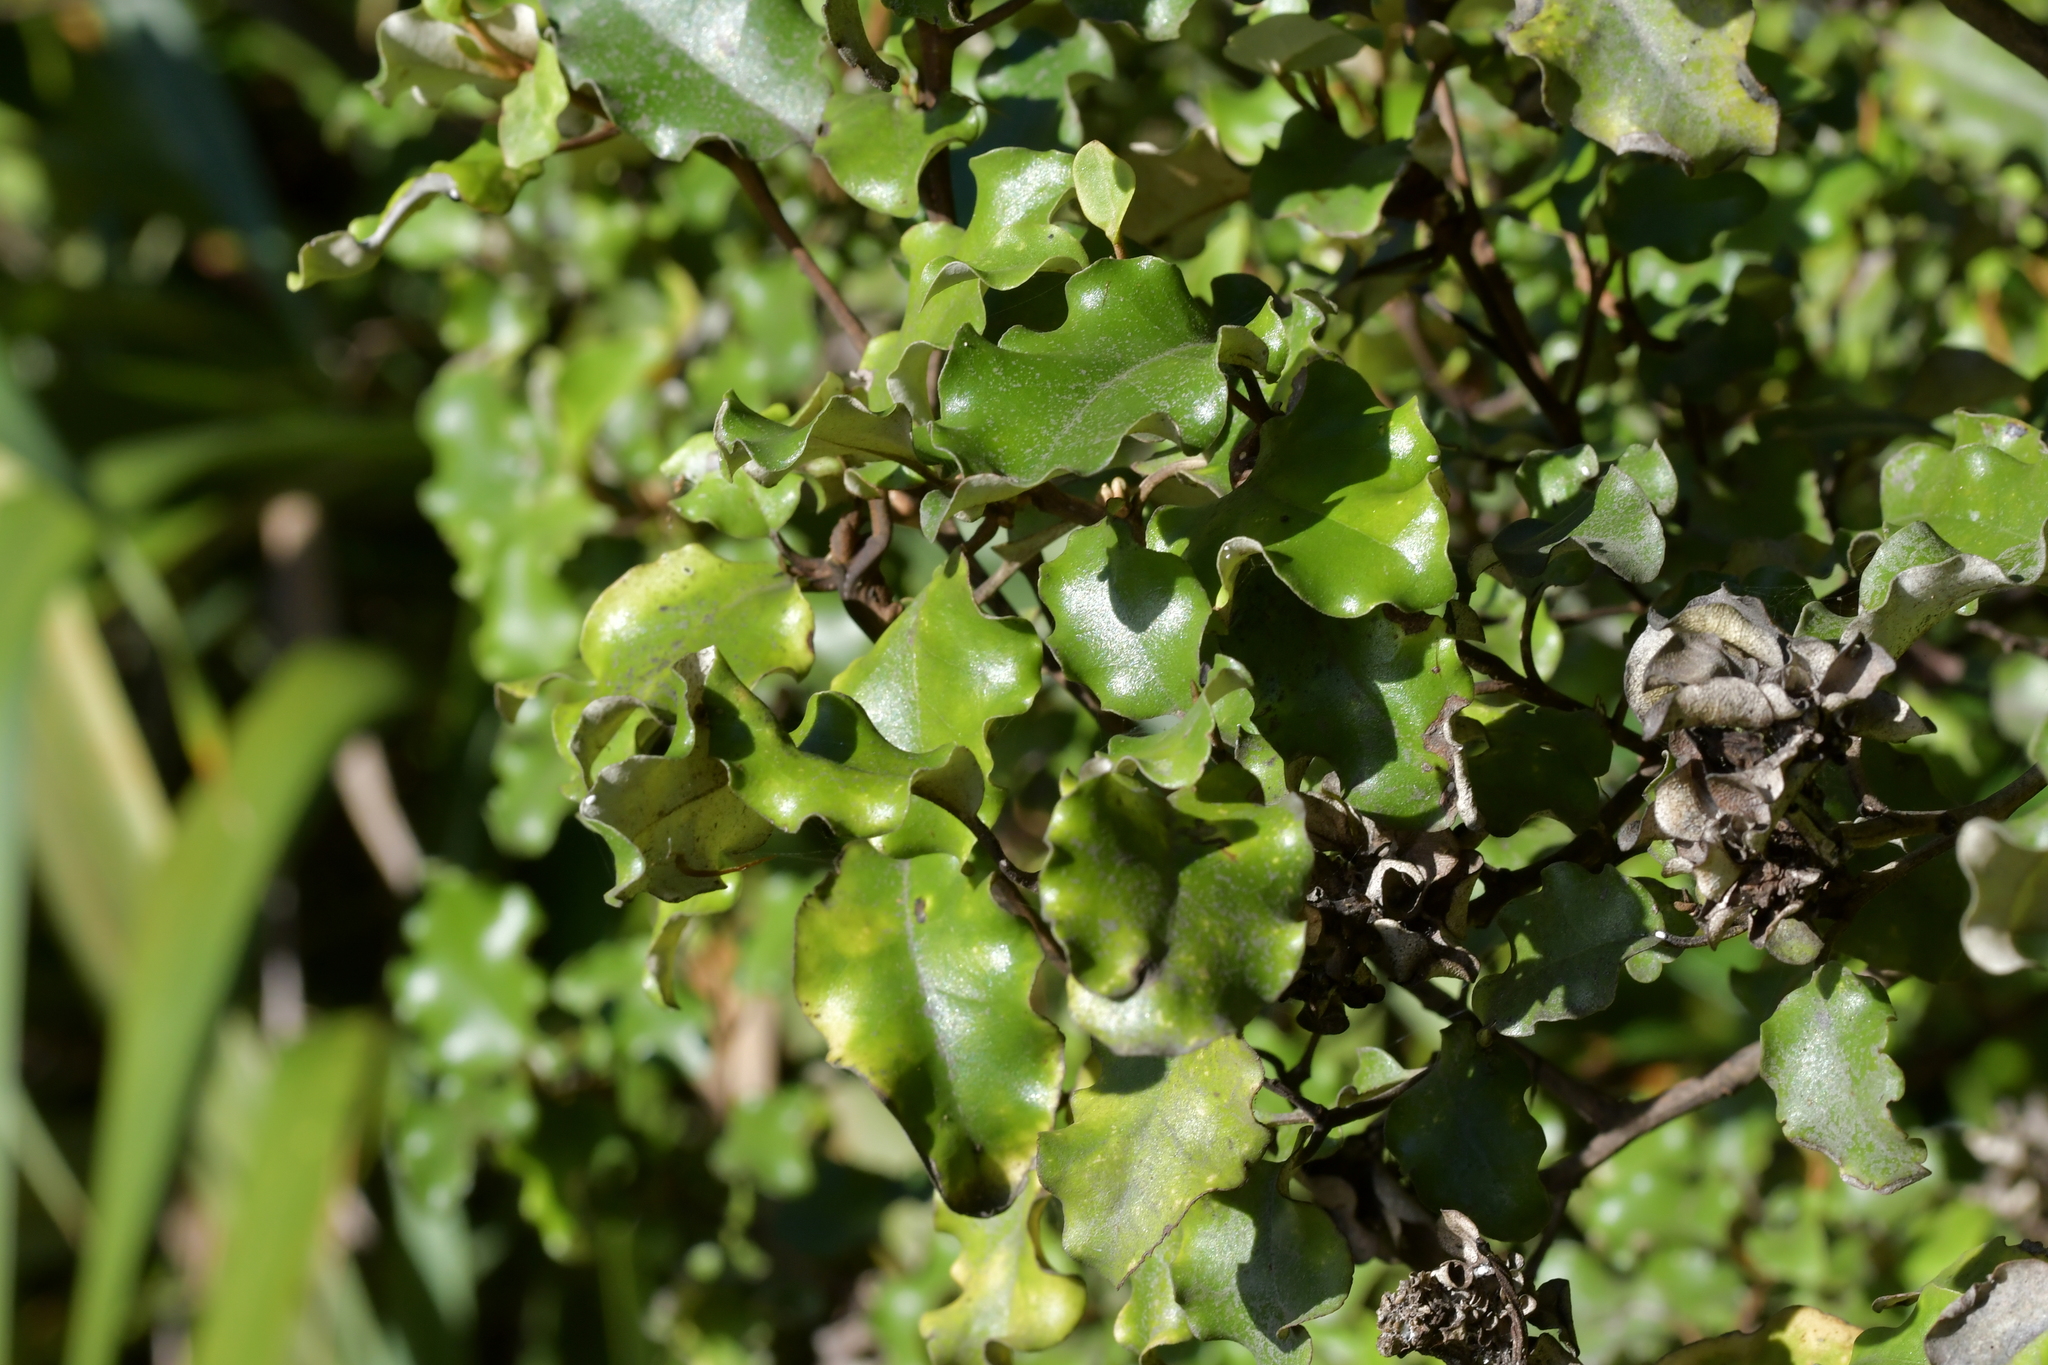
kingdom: Plantae
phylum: Tracheophyta
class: Magnoliopsida
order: Asterales
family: Asteraceae
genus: Olearia
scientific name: Olearia paniculata
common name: Akiraho
